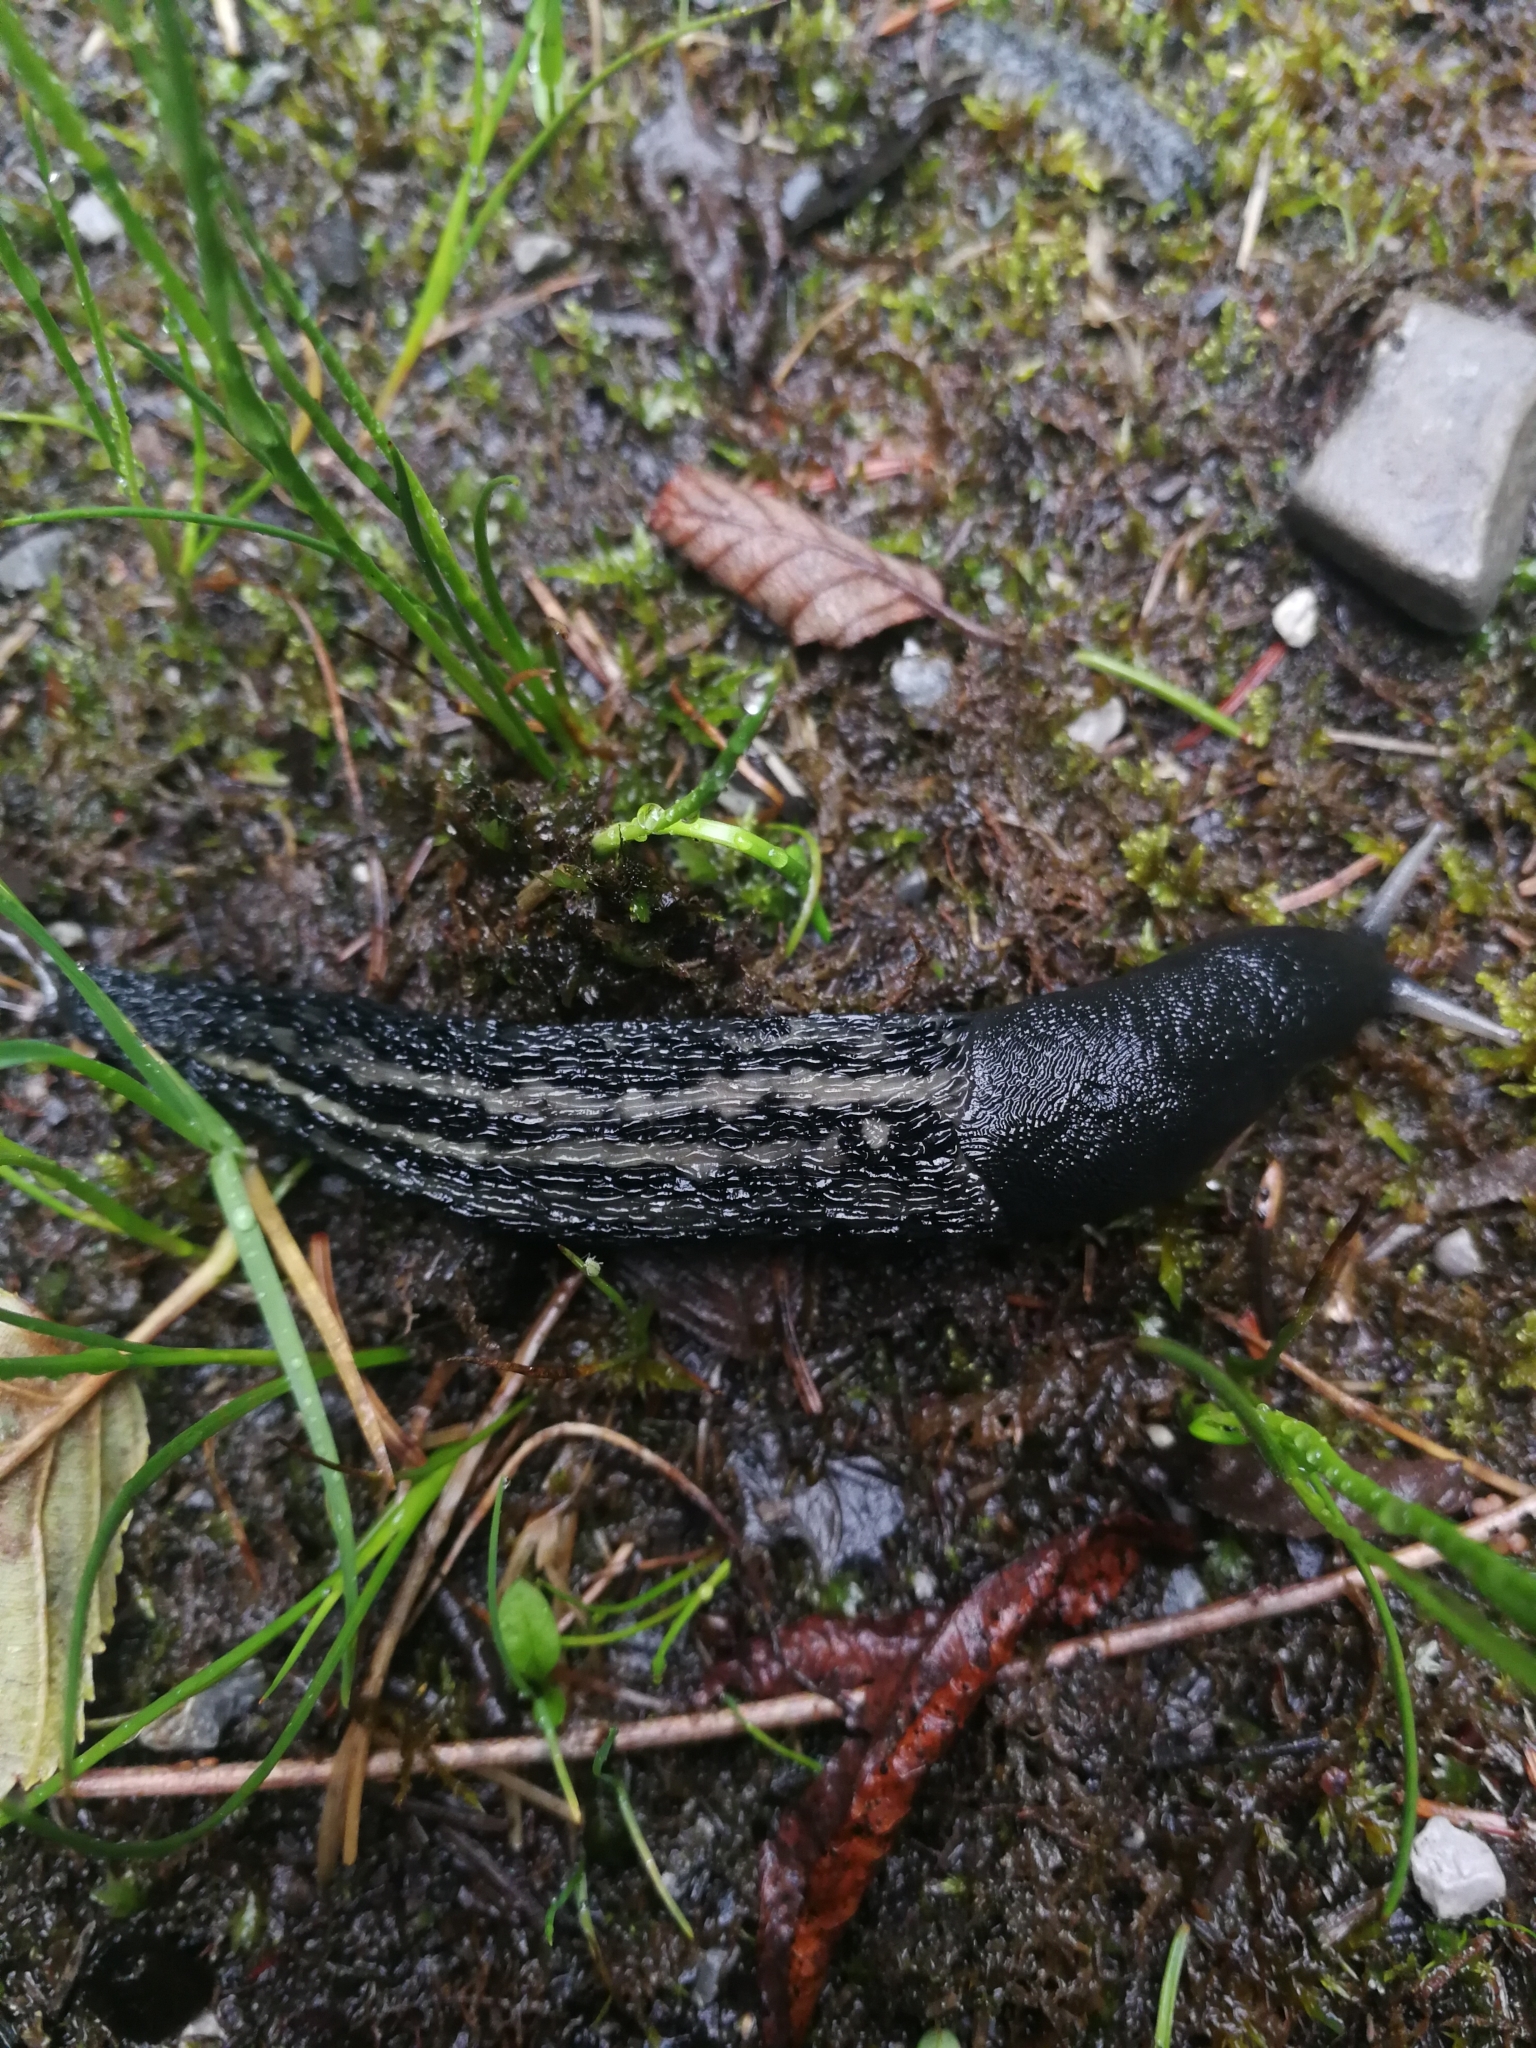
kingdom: Animalia
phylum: Mollusca
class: Gastropoda
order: Stylommatophora
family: Limacidae
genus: Limax
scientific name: Limax cinereoniger
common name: Ash-black slug
